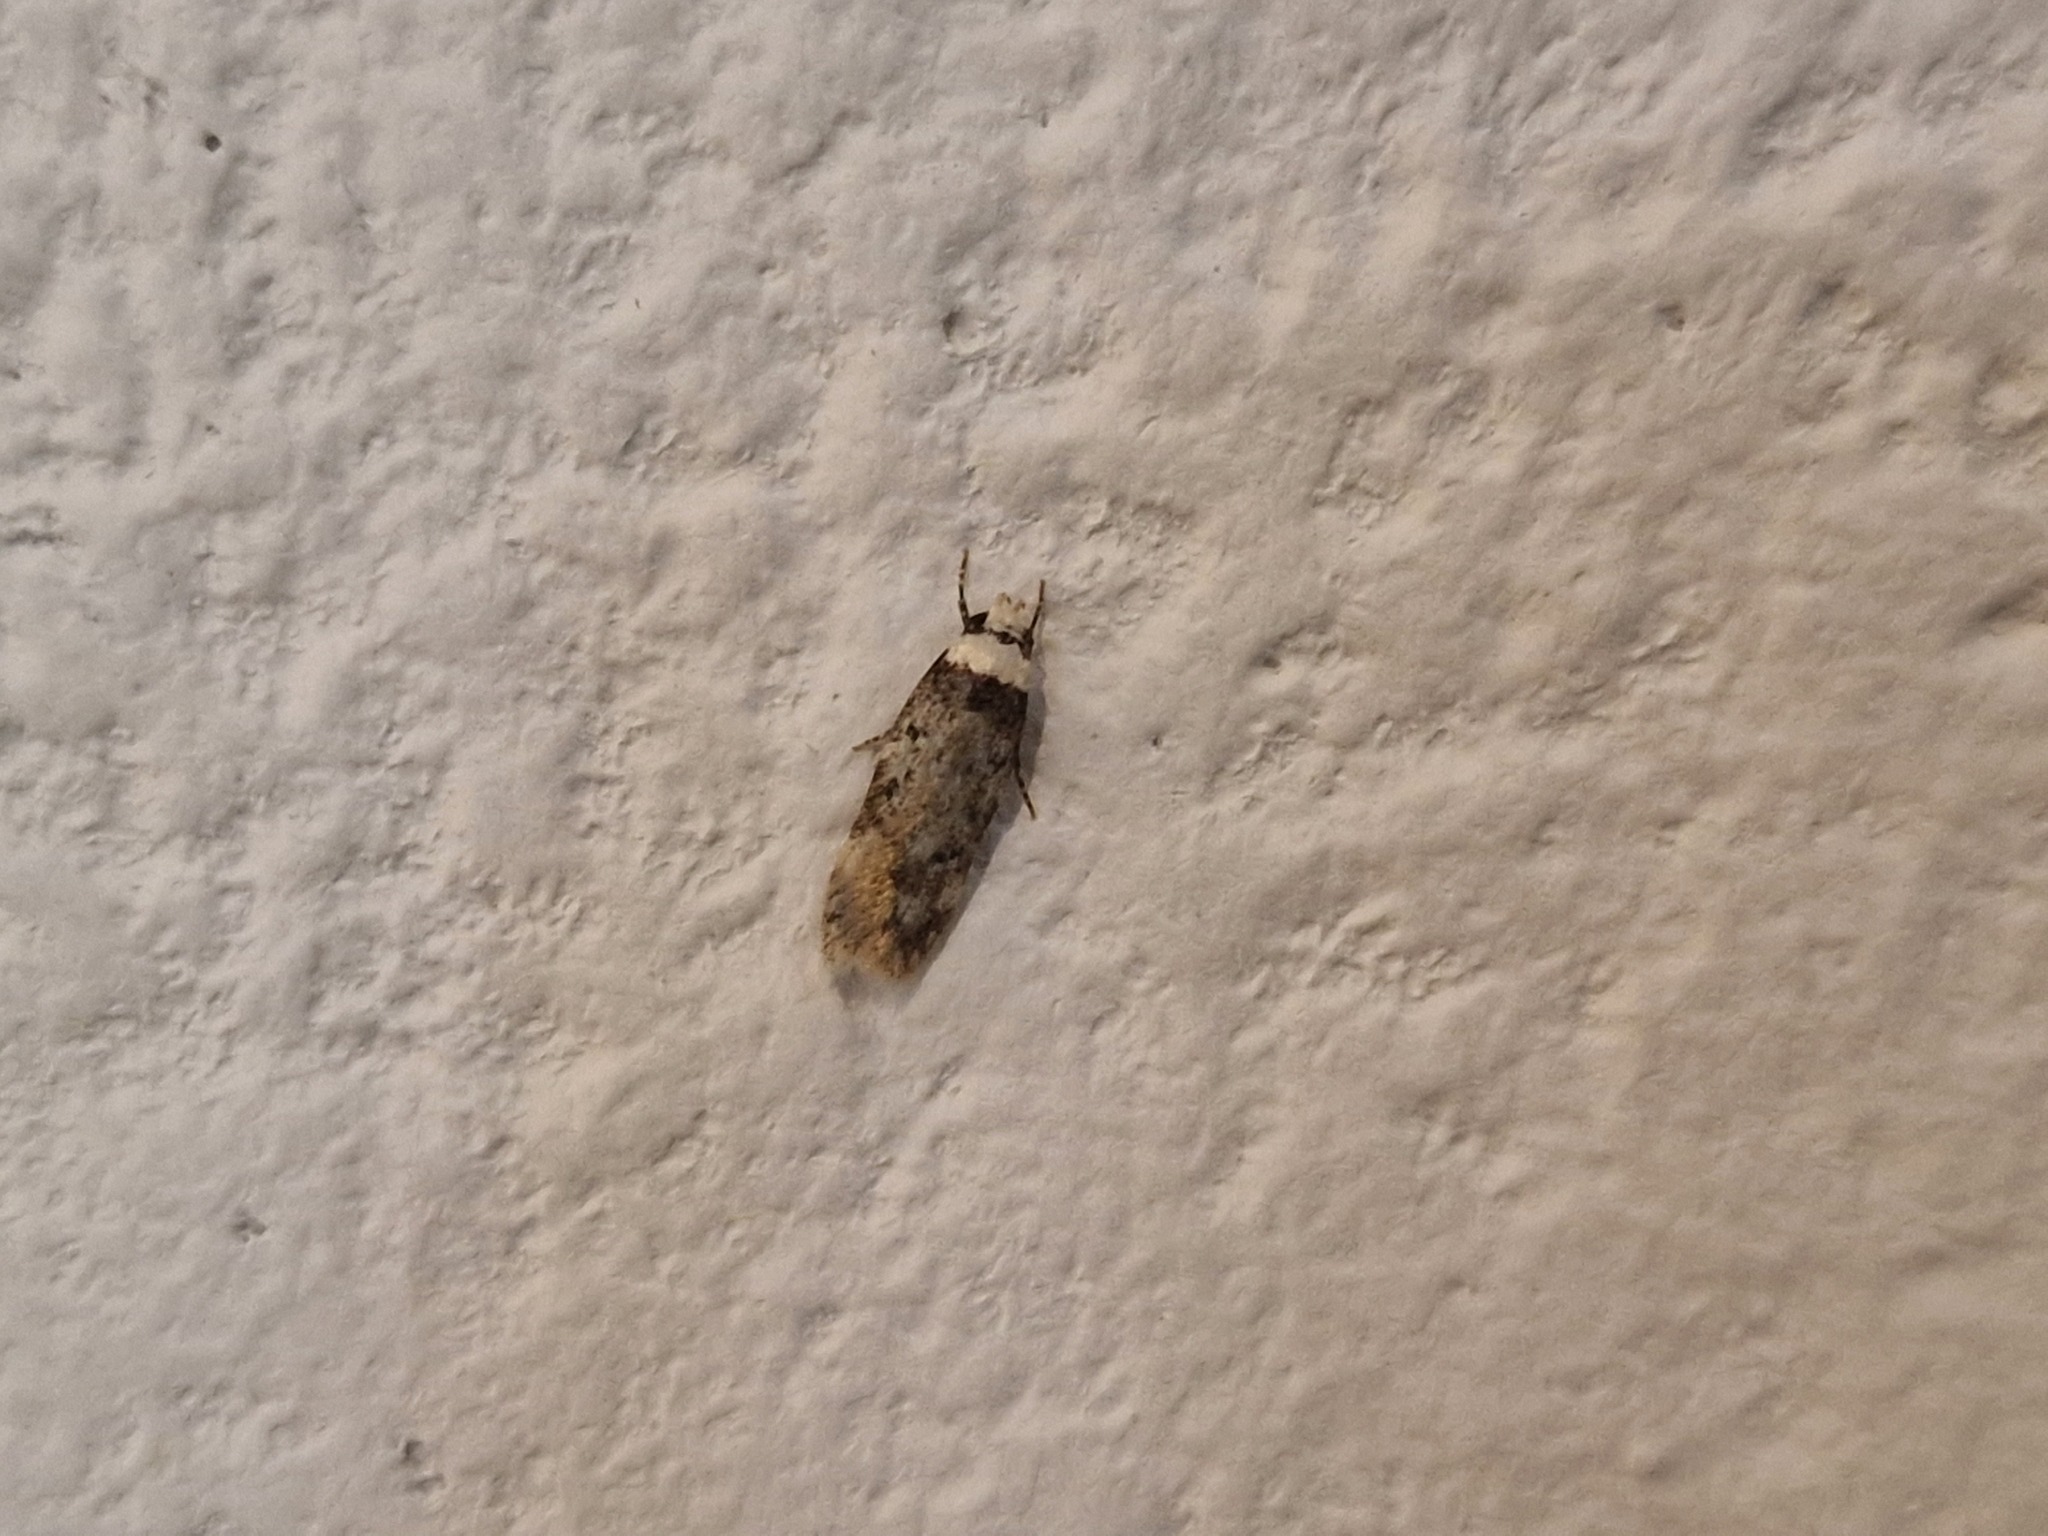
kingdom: Animalia
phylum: Arthropoda
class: Insecta
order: Lepidoptera
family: Oecophoridae
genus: Endrosis
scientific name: Endrosis sarcitrella
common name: White-shouldered house moth
